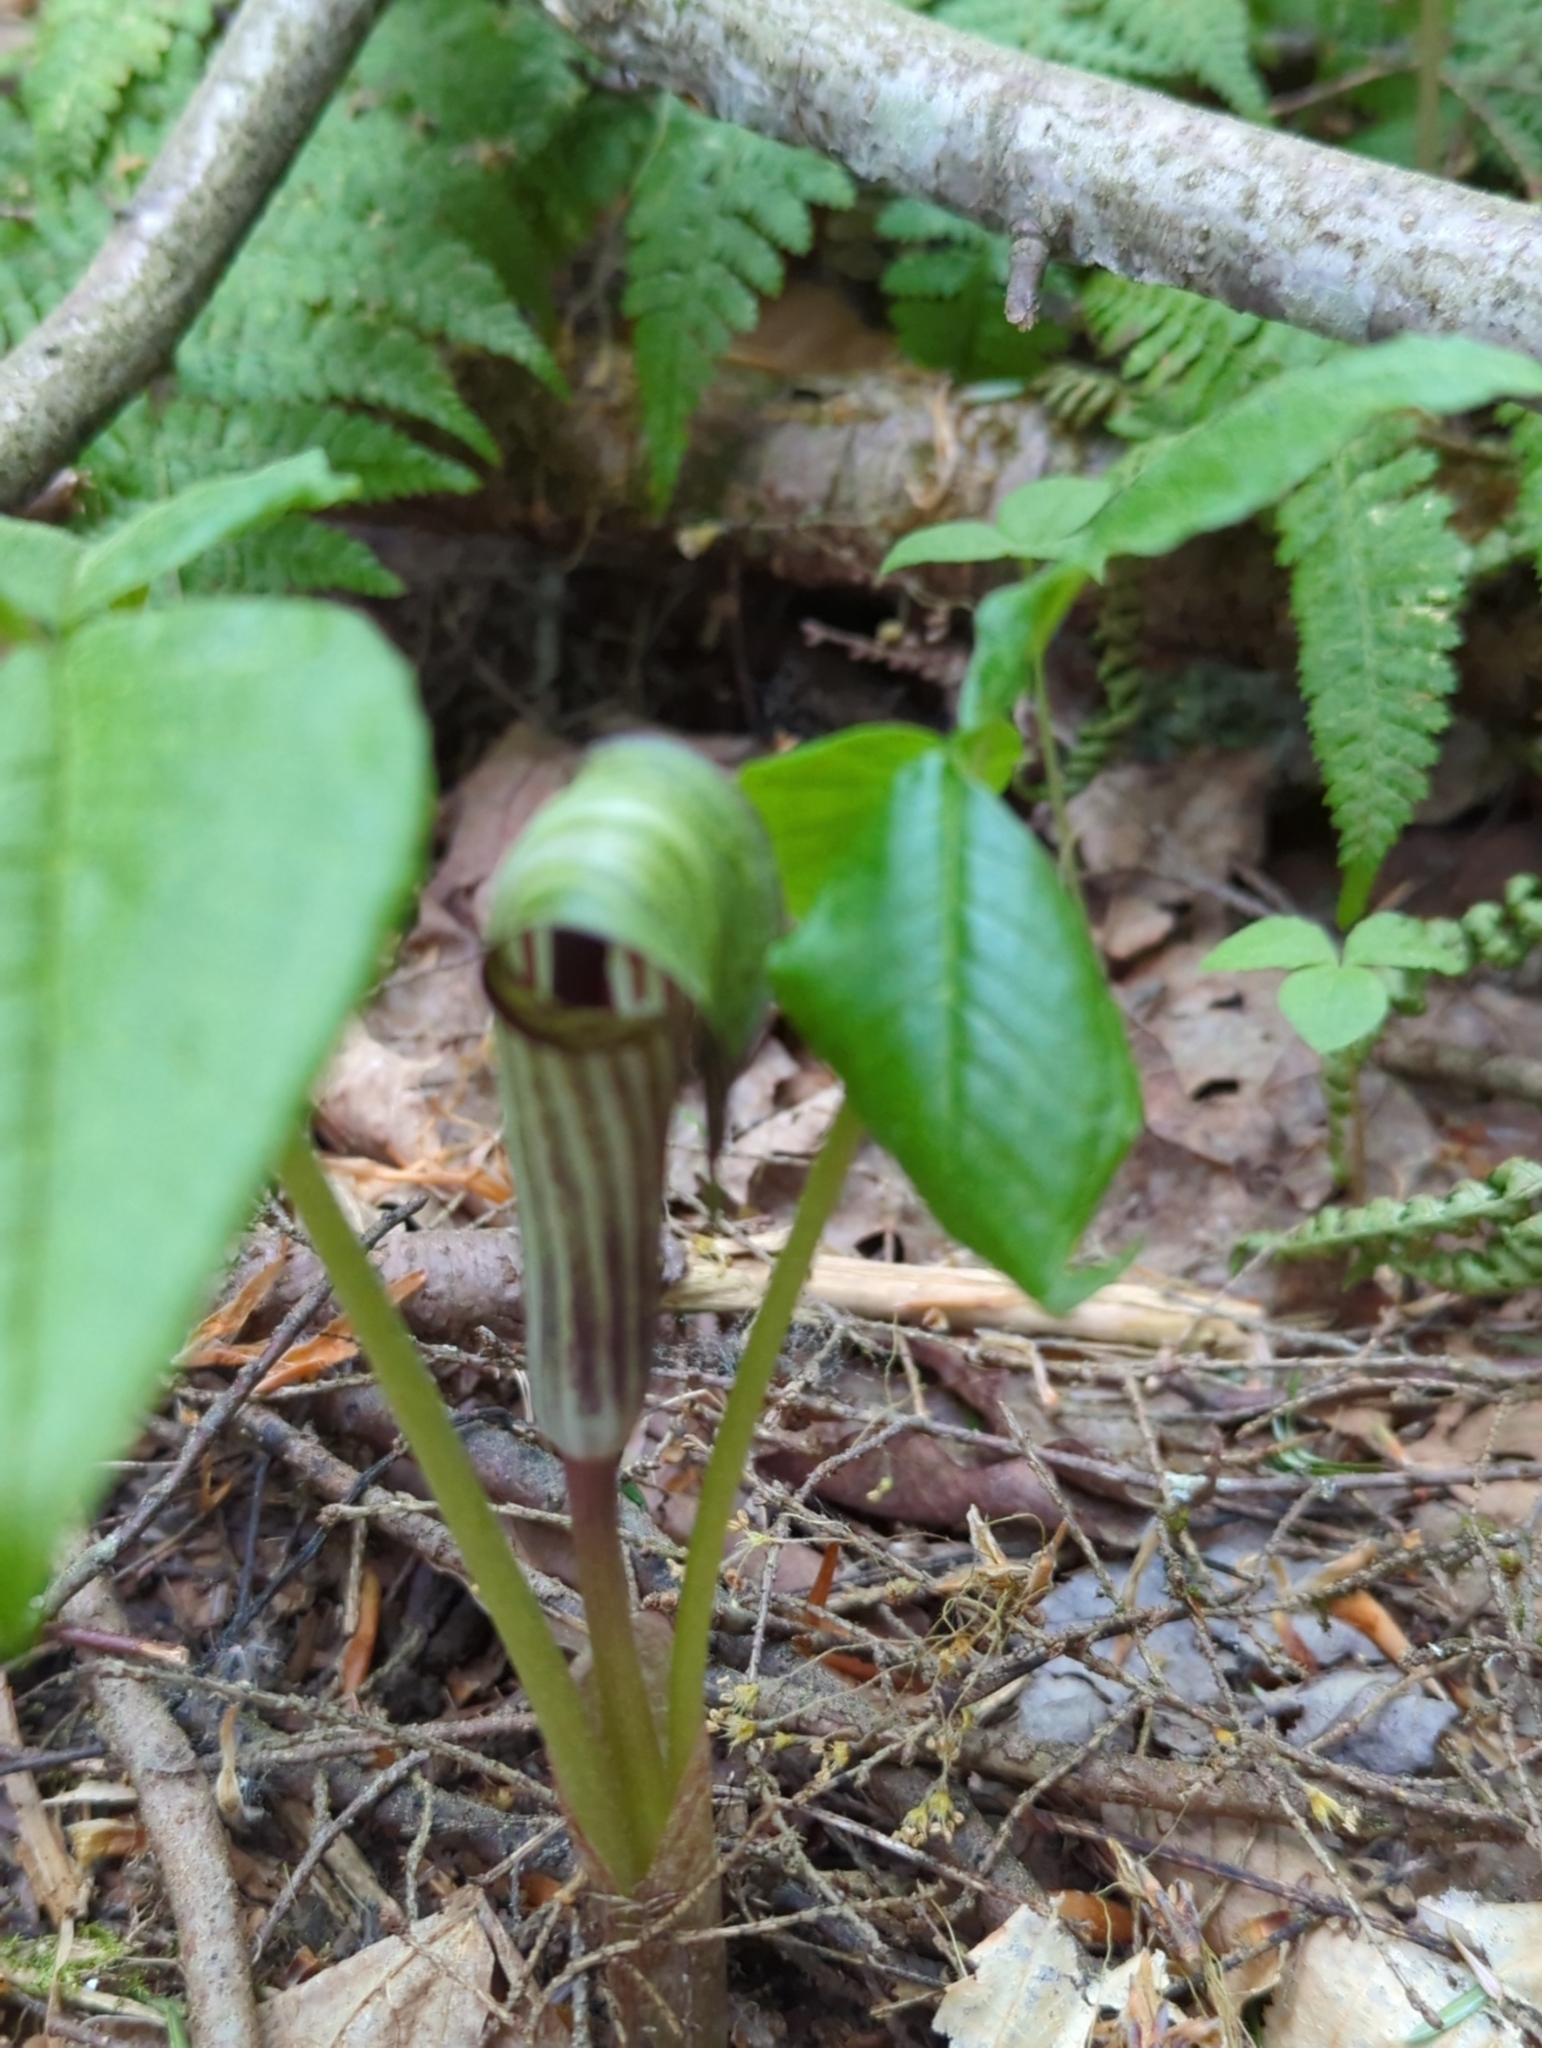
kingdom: Plantae
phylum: Tracheophyta
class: Liliopsida
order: Alismatales
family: Araceae
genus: Arisaema
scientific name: Arisaema triphyllum
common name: Jack-in-the-pulpit
